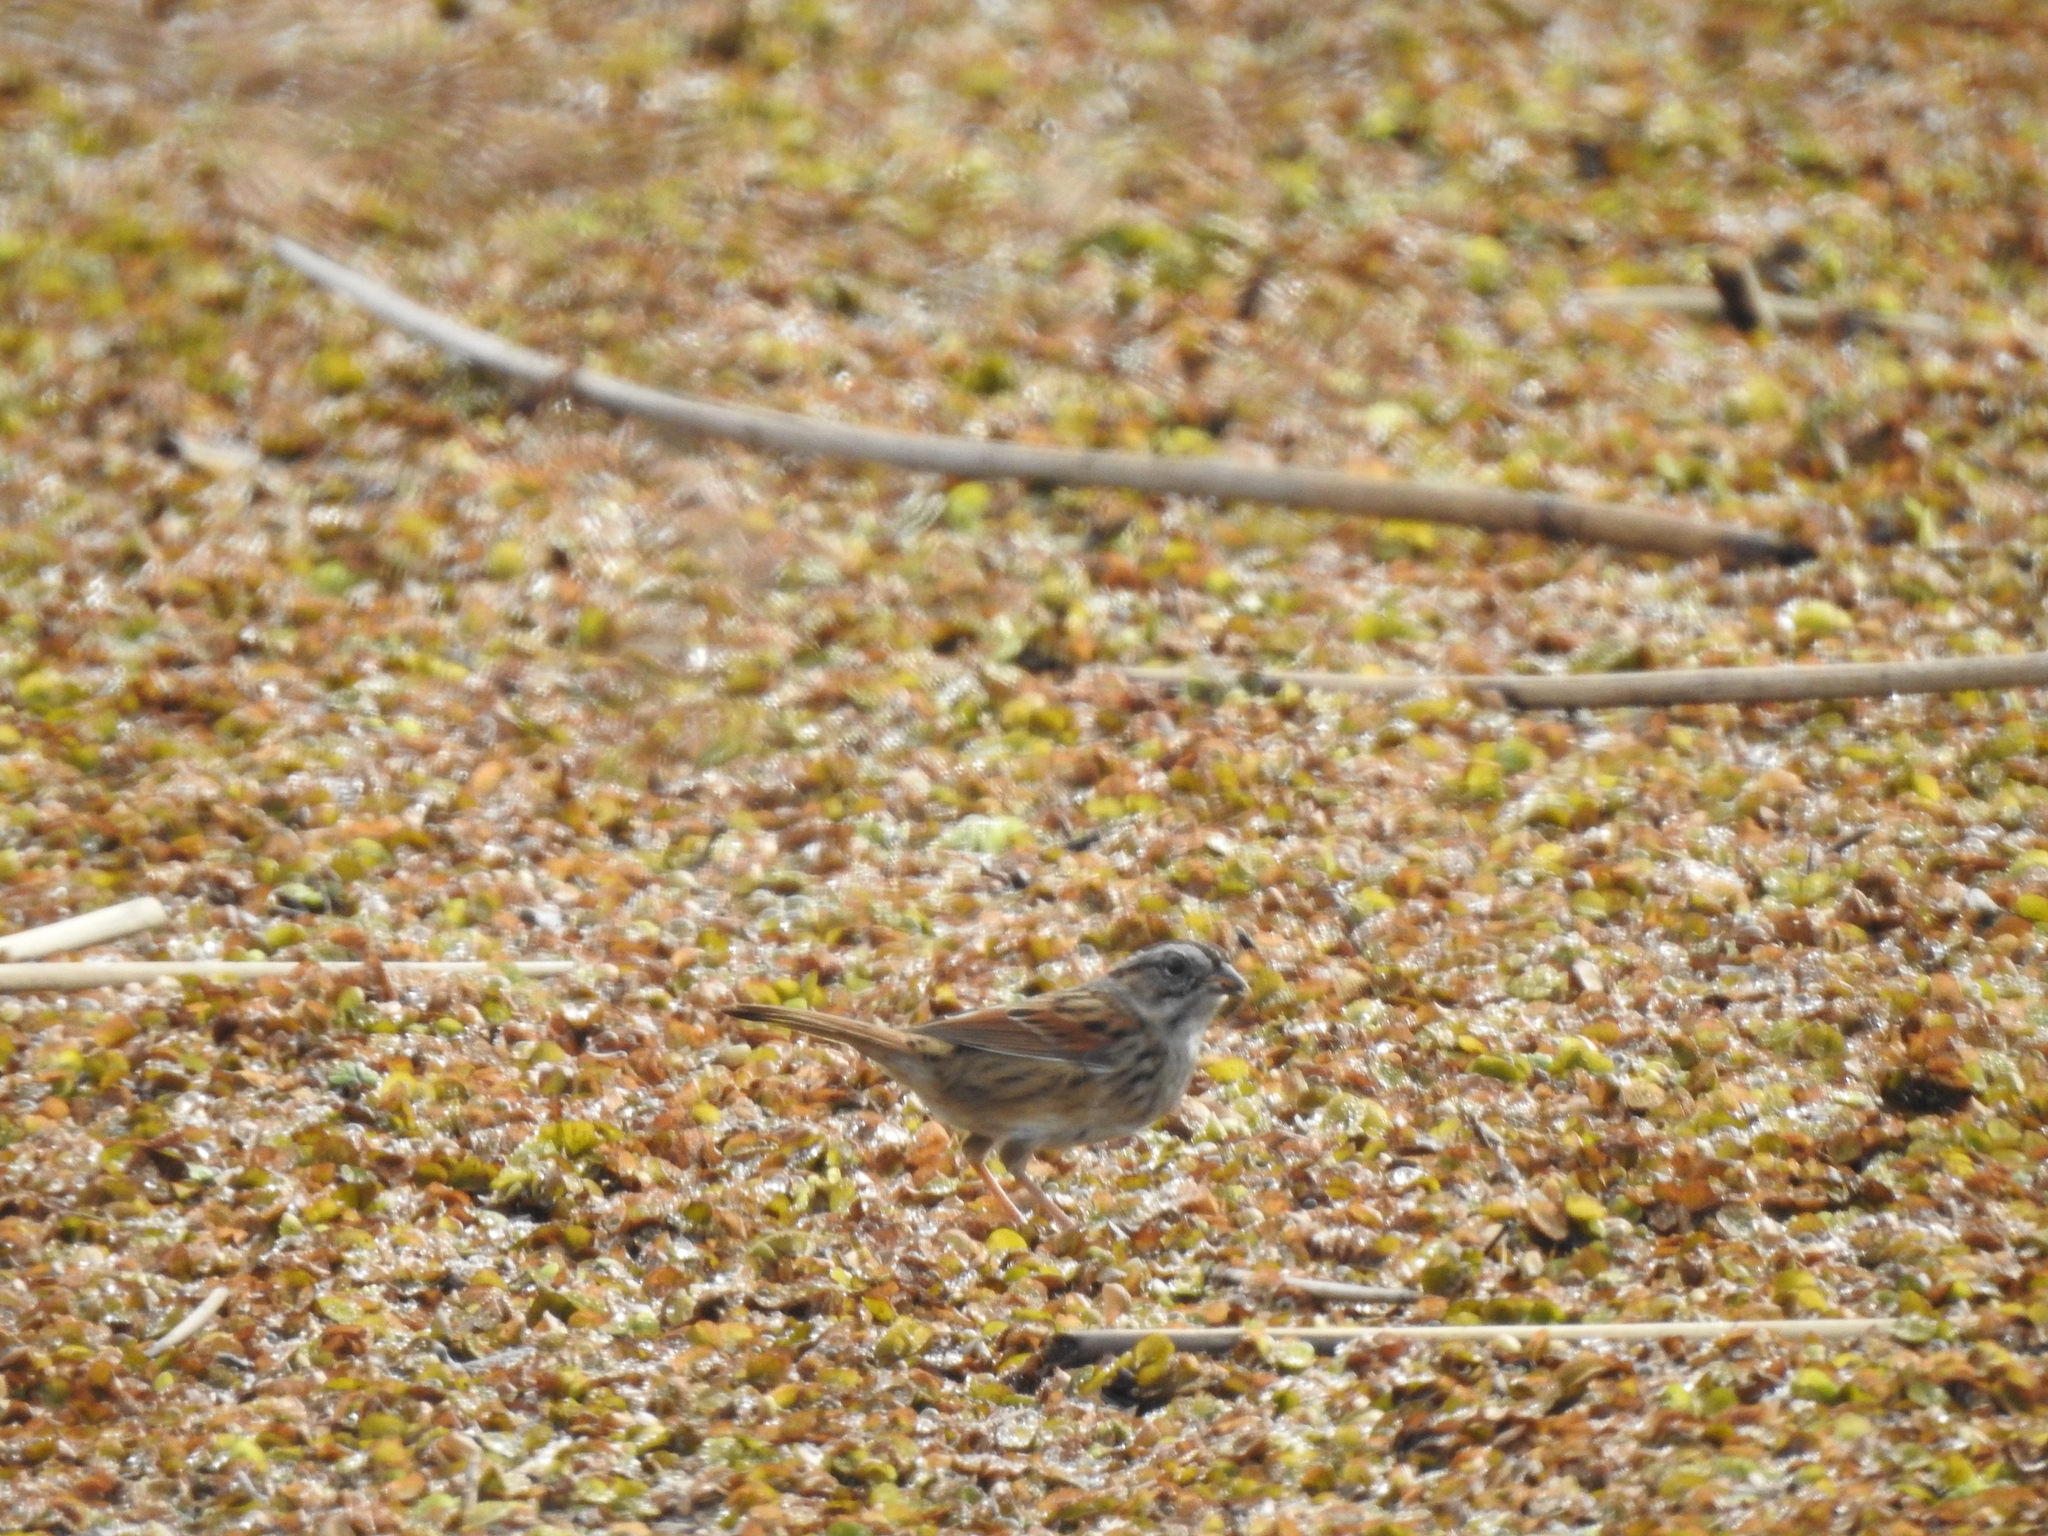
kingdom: Animalia
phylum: Chordata
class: Aves
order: Passeriformes
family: Passerellidae
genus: Melospiza
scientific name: Melospiza georgiana
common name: Swamp sparrow
